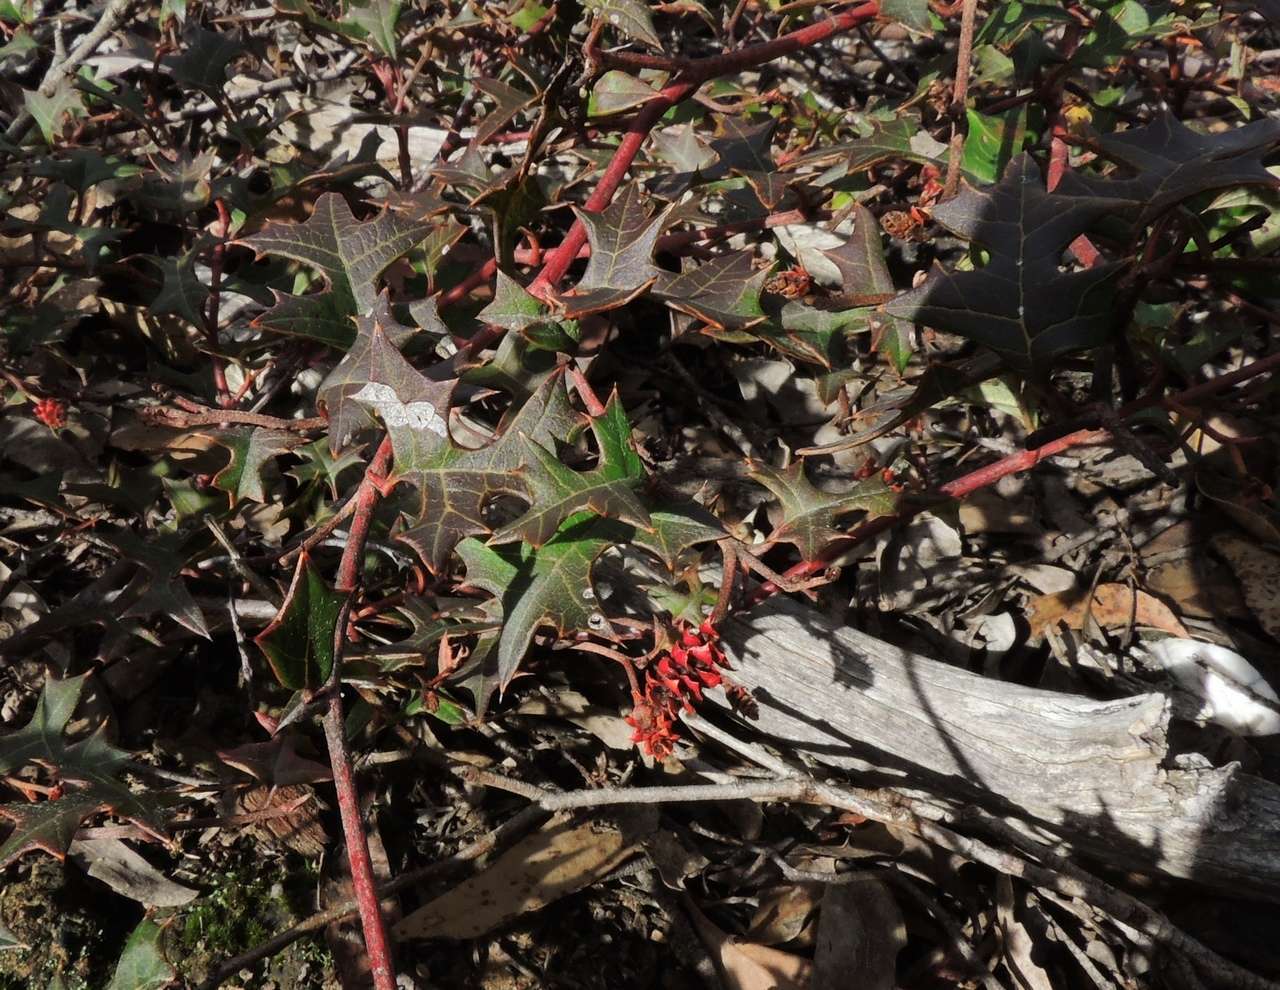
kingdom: Plantae
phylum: Tracheophyta
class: Magnoliopsida
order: Proteales
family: Proteaceae
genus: Grevillea
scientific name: Grevillea steiglitziana
